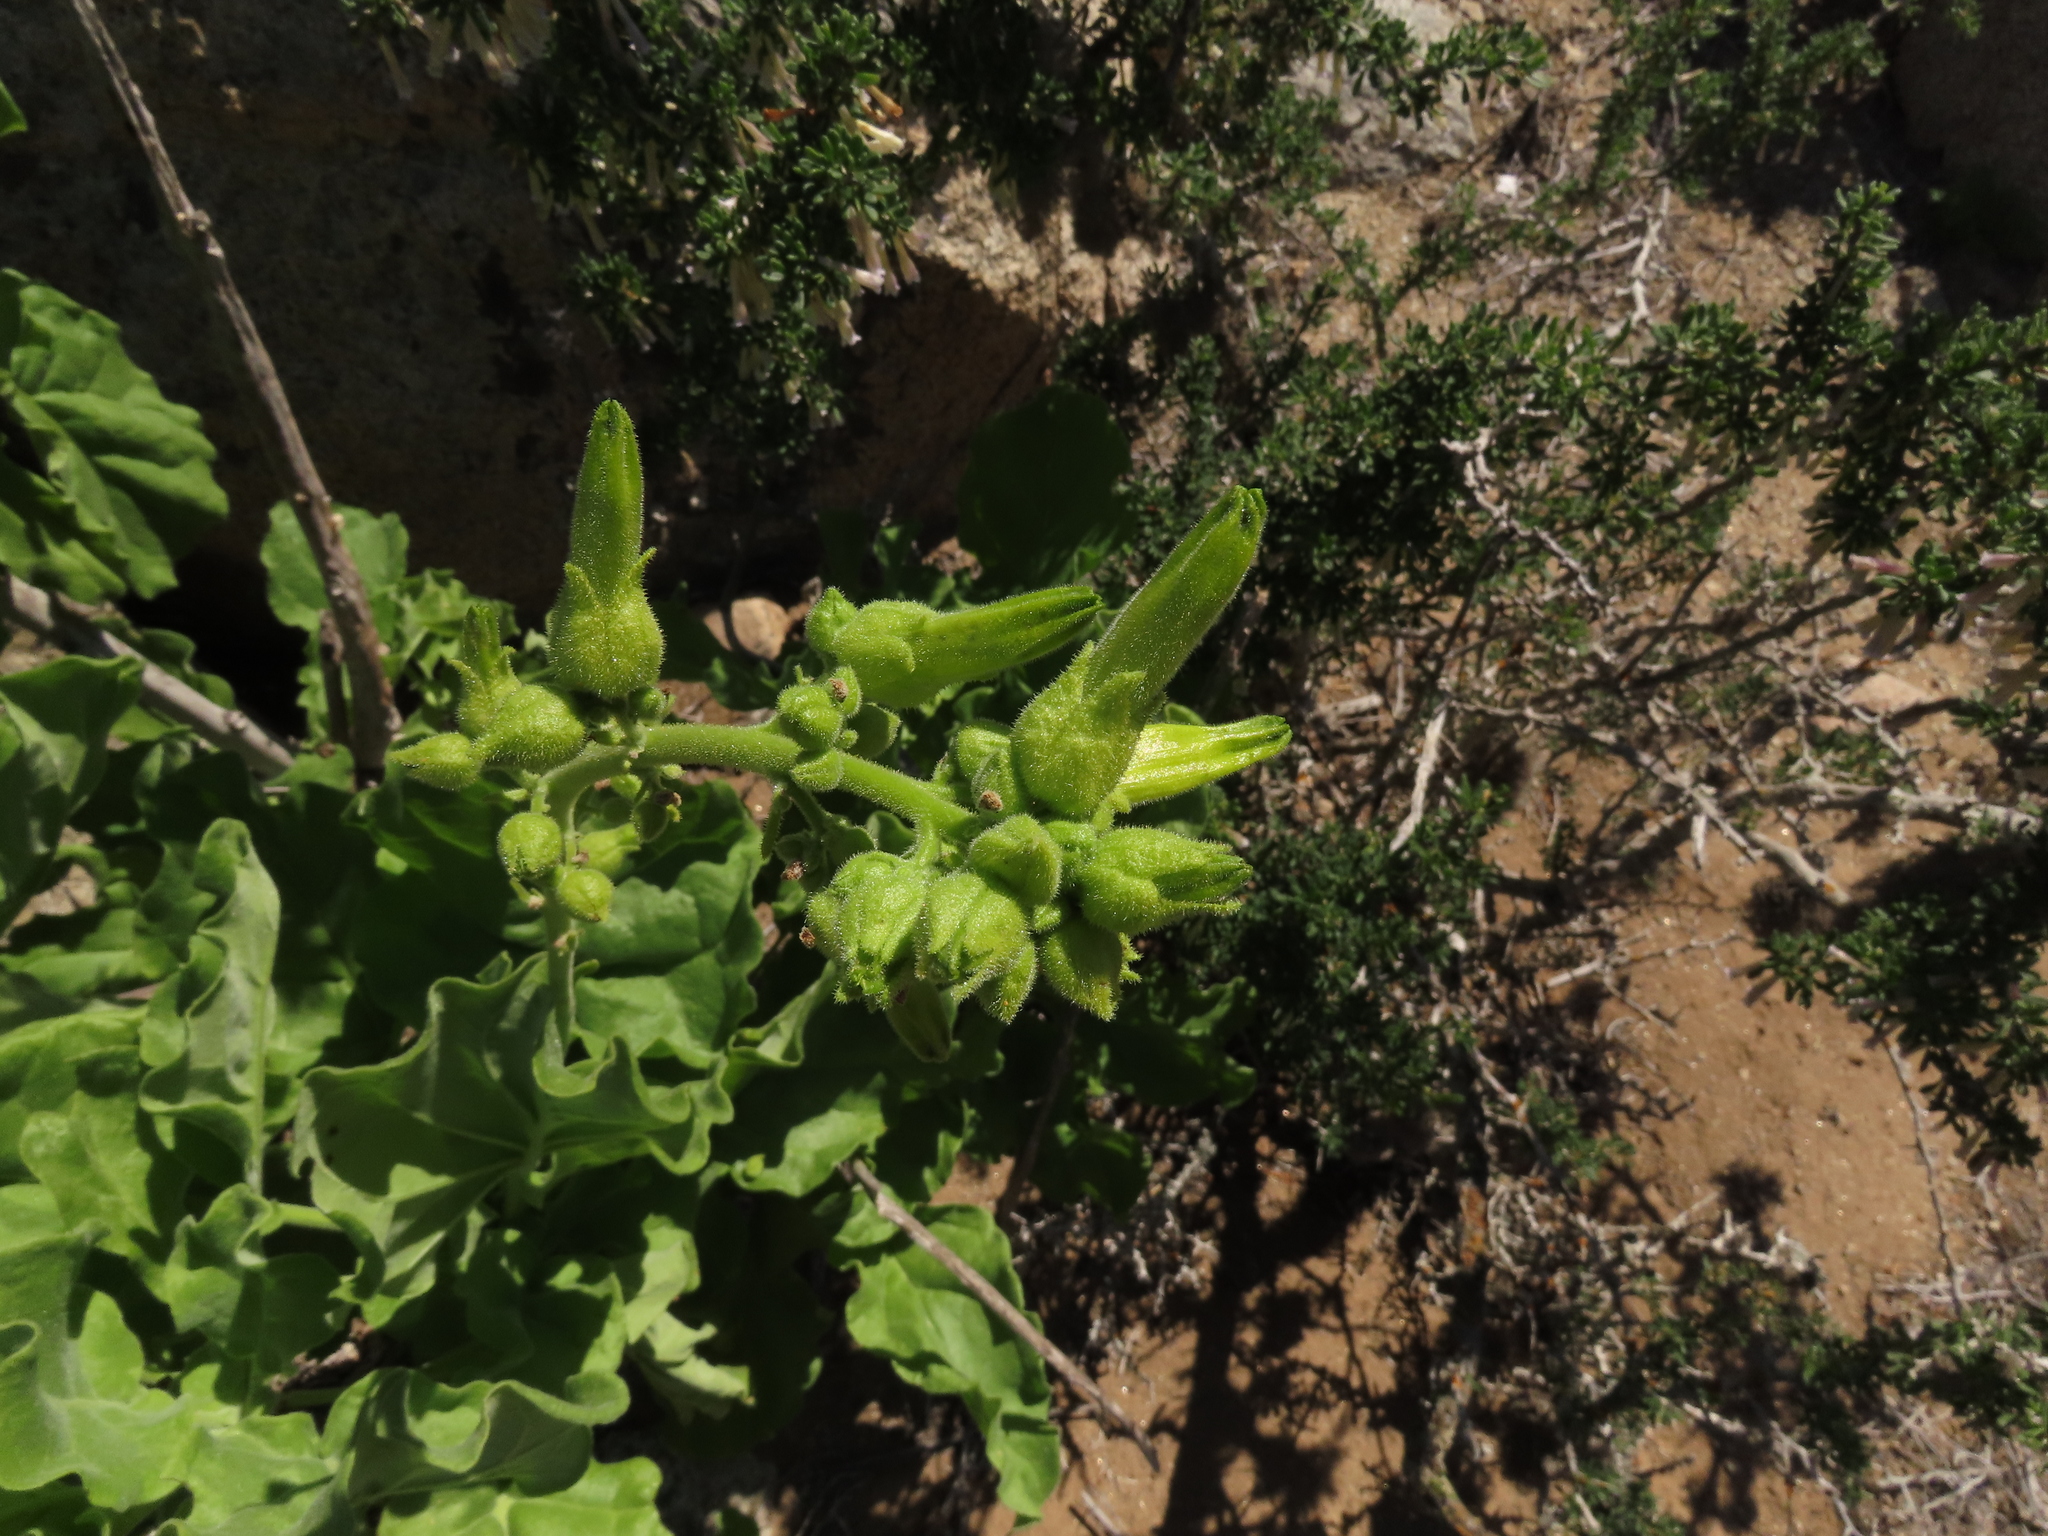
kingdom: Plantae
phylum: Tracheophyta
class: Magnoliopsida
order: Solanales
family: Solanaceae
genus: Nicotiana
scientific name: Nicotiana solanifolia
